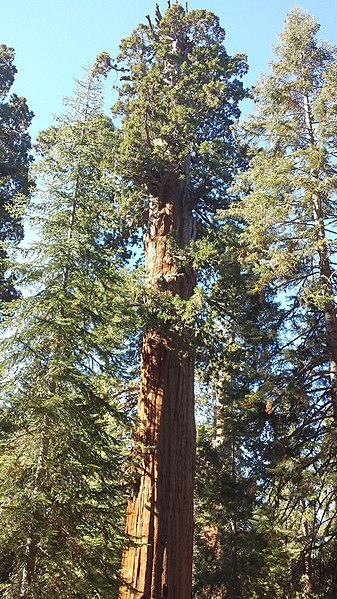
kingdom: Plantae
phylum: Tracheophyta
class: Pinopsida
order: Pinales
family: Cupressaceae
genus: Sequoiadendron
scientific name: Sequoiadendron giganteum
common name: Wellingtonia
